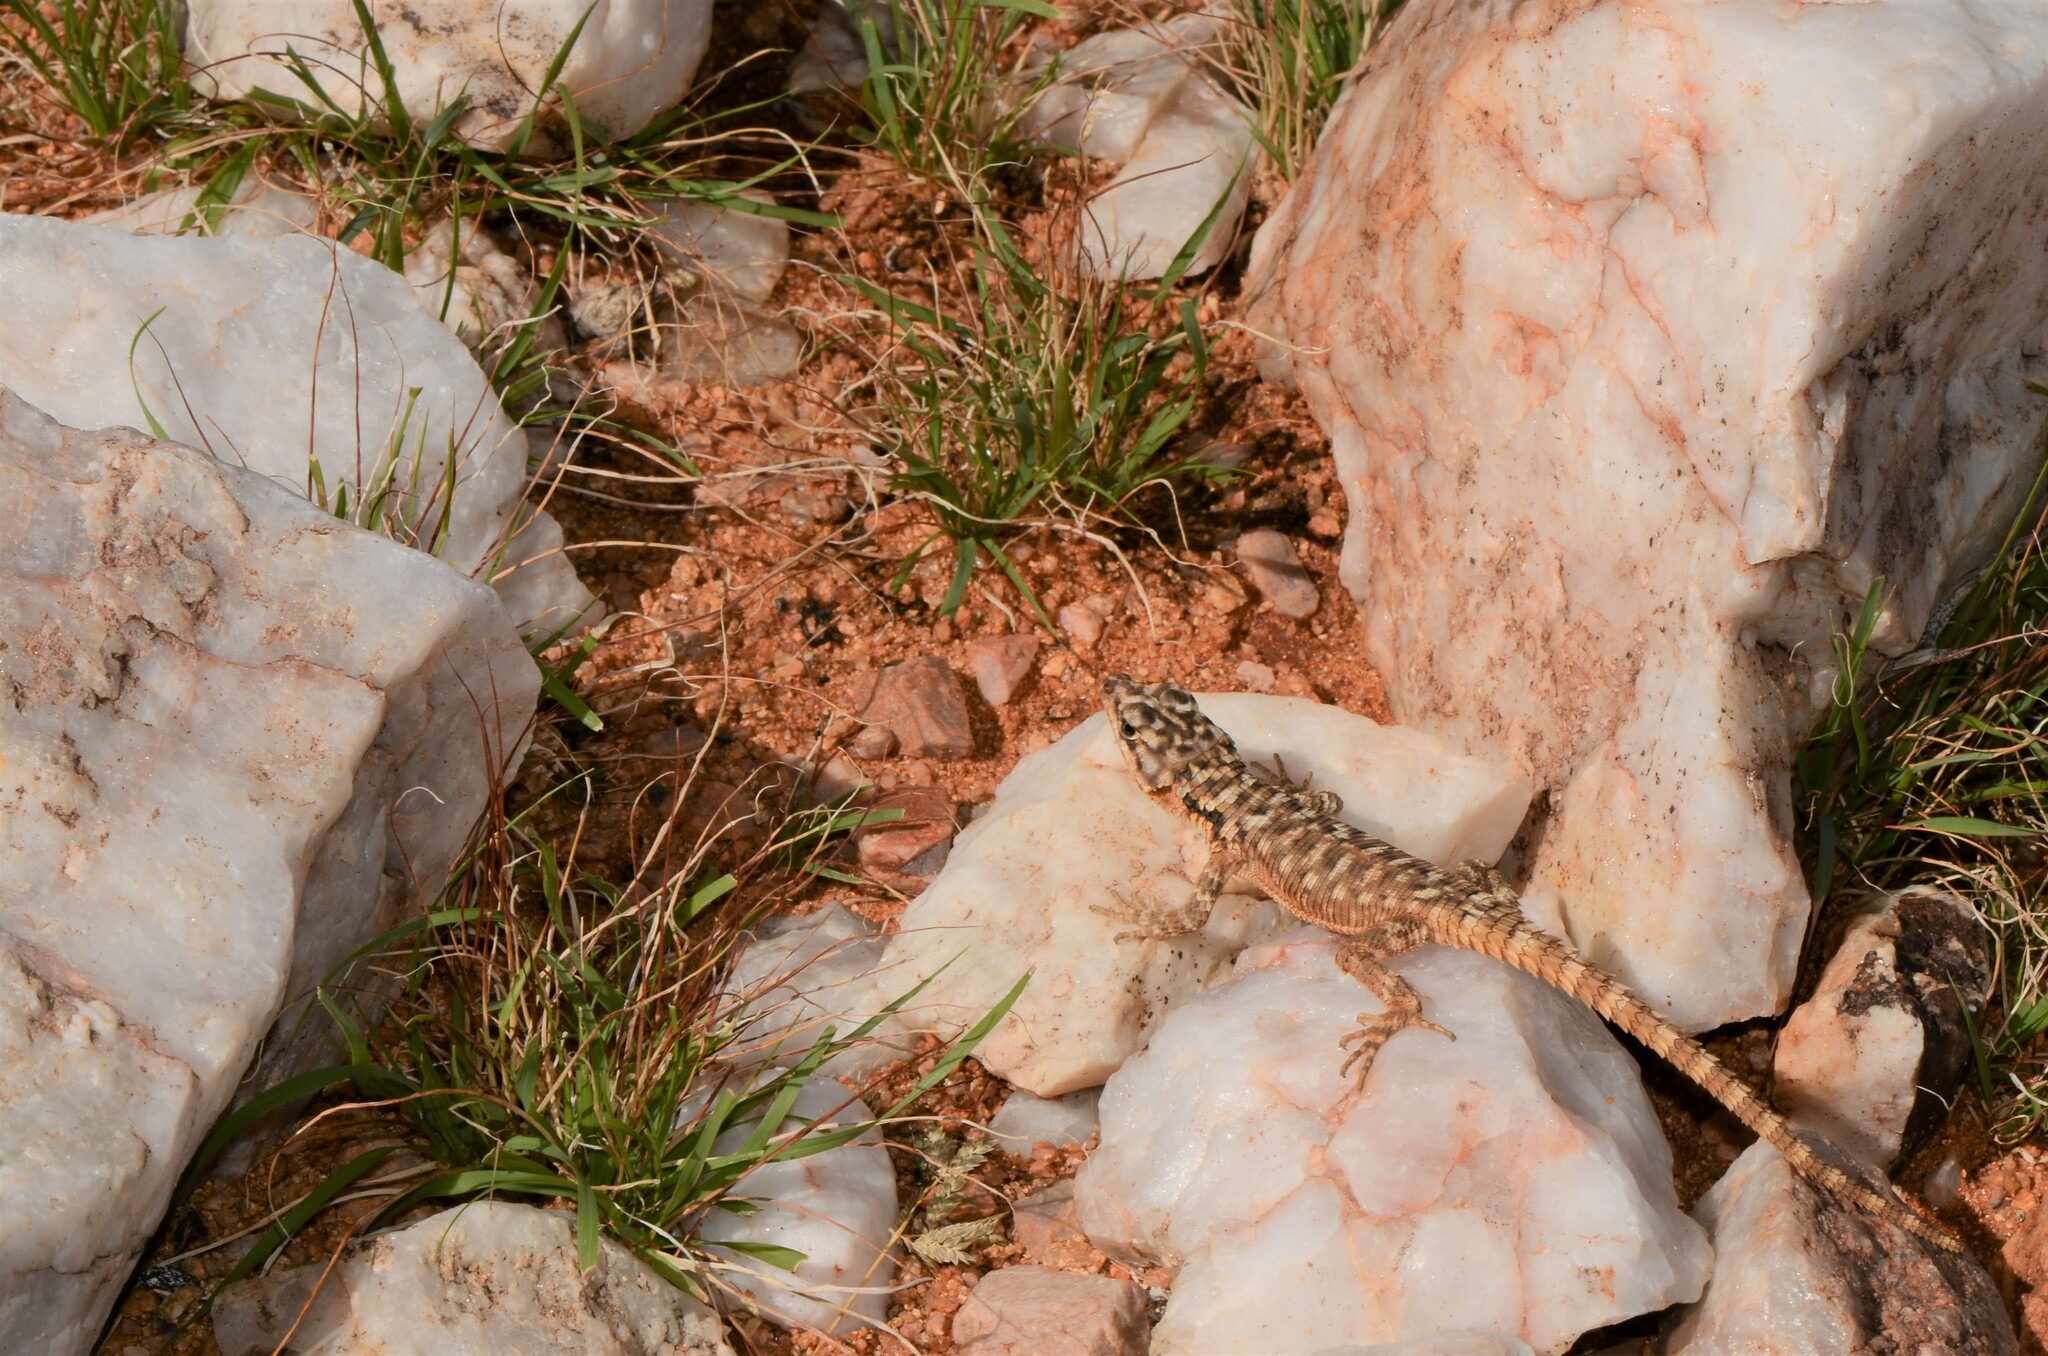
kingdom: Animalia
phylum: Chordata
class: Squamata
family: Cordylidae
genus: Karusasaurus
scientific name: Karusasaurus polyzonus
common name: Karoo girdled lizard
